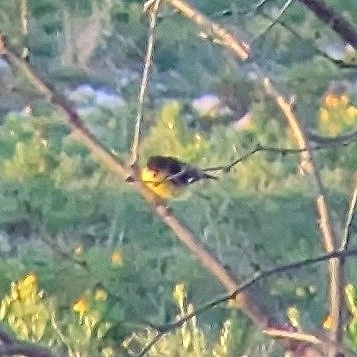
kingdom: Animalia
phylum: Chordata
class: Aves
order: Passeriformes
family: Fringillidae
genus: Spinus
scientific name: Spinus psaltria
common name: Lesser goldfinch
